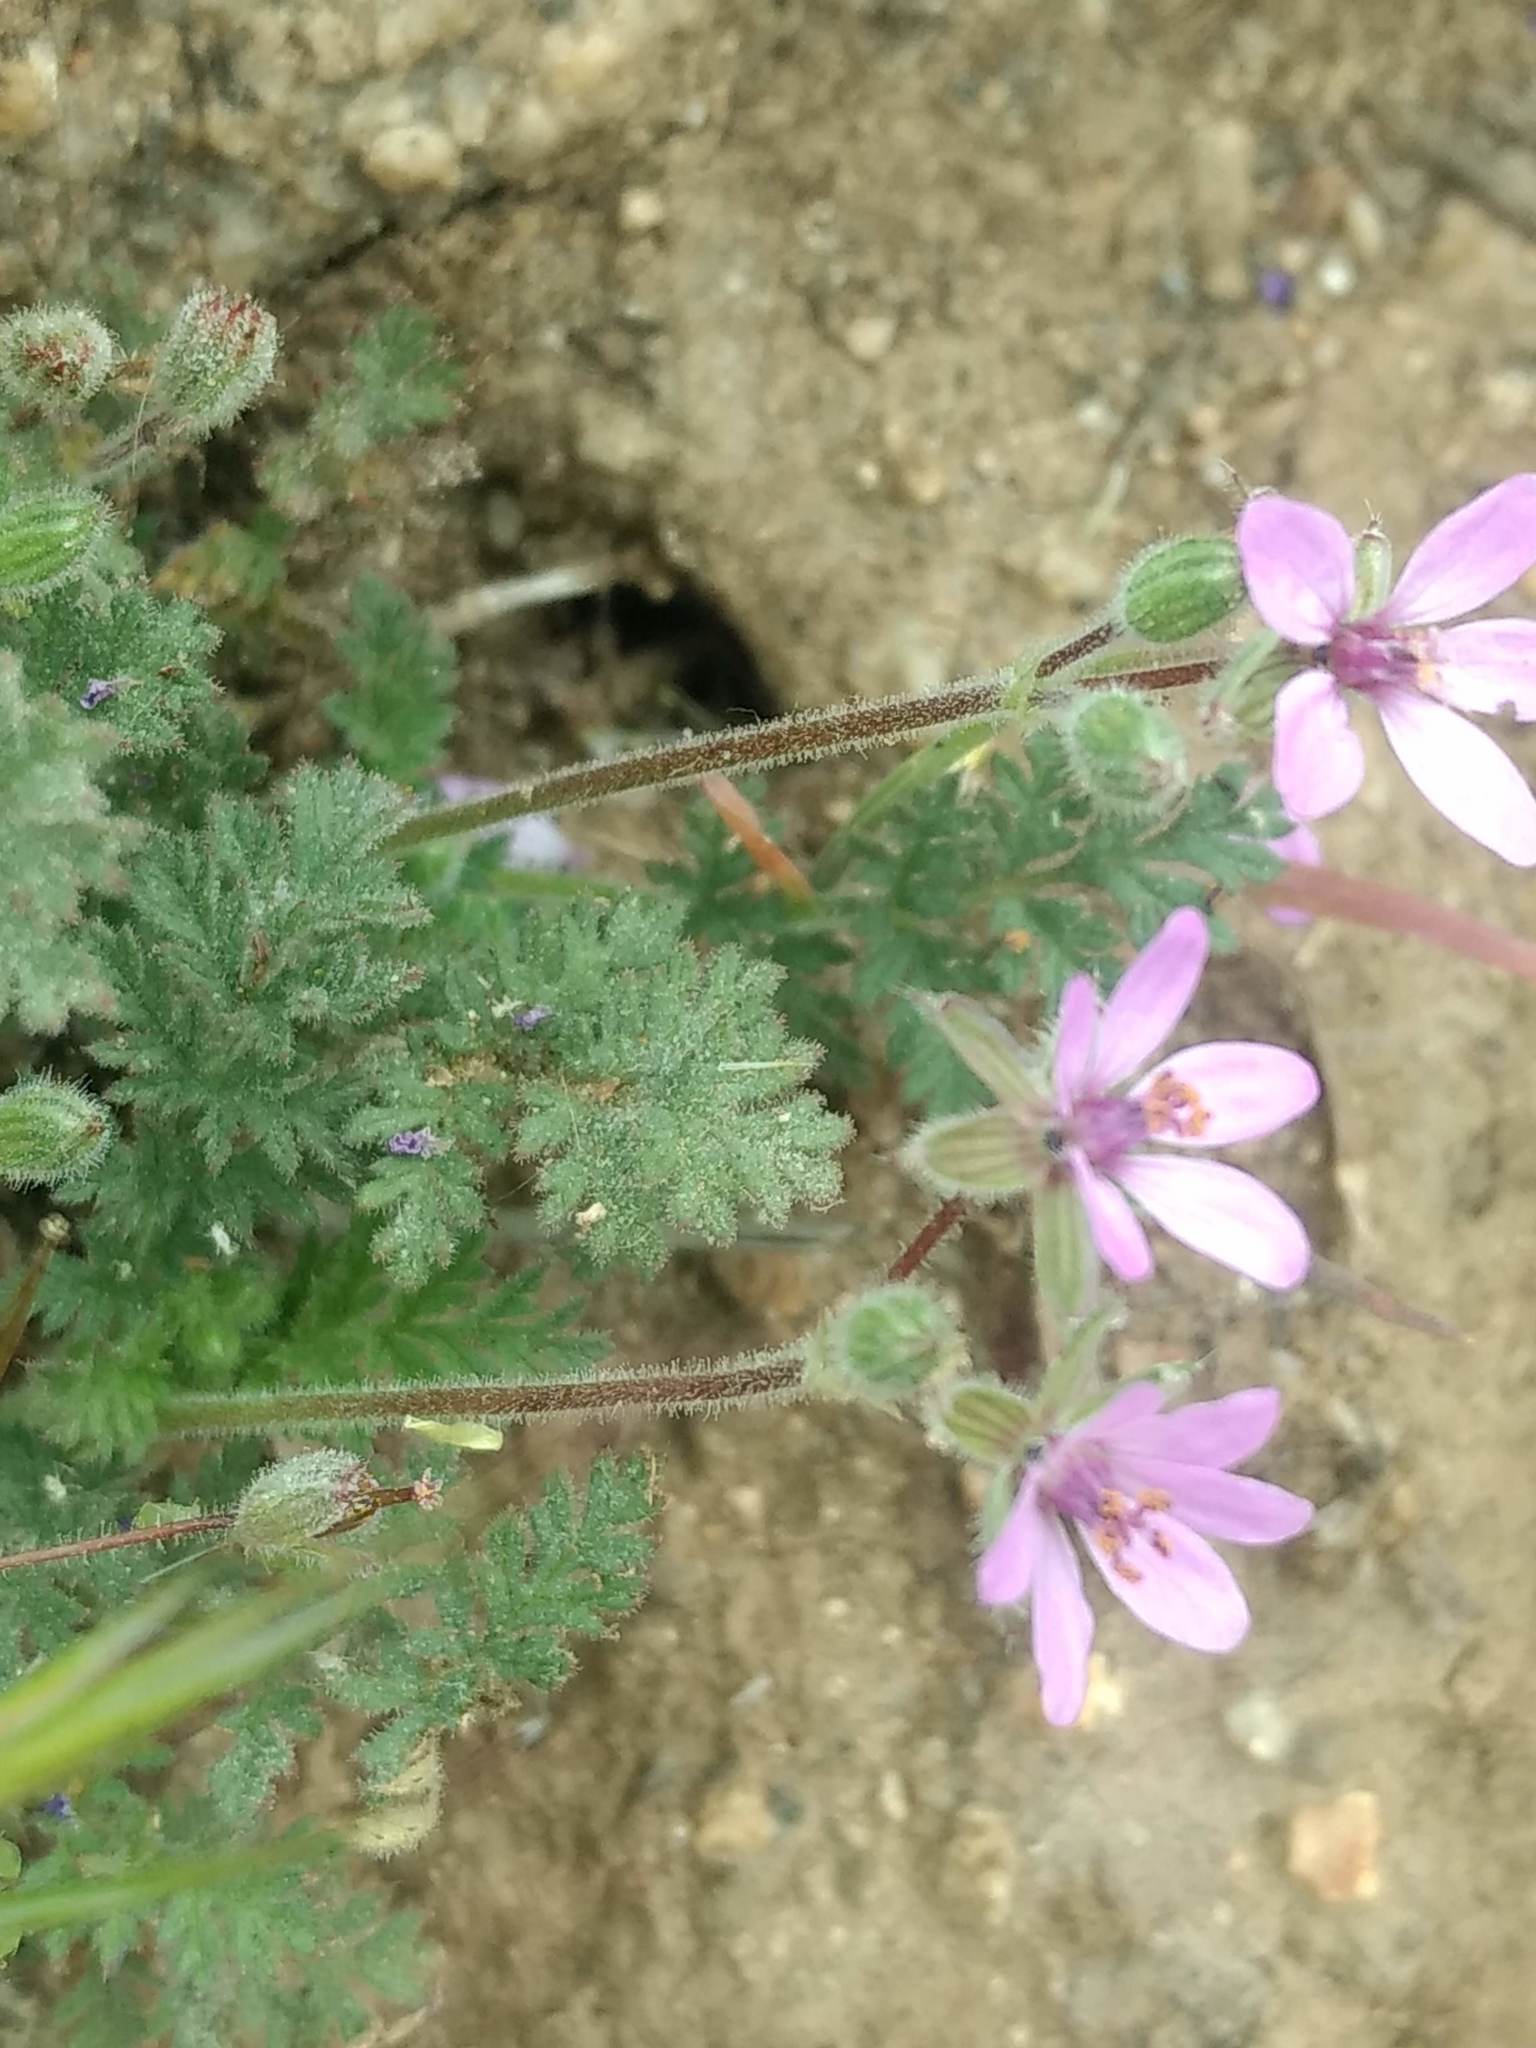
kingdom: Plantae
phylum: Tracheophyta
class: Magnoliopsida
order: Geraniales
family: Geraniaceae
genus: Erodium
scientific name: Erodium cicutarium
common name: Common stork's-bill
